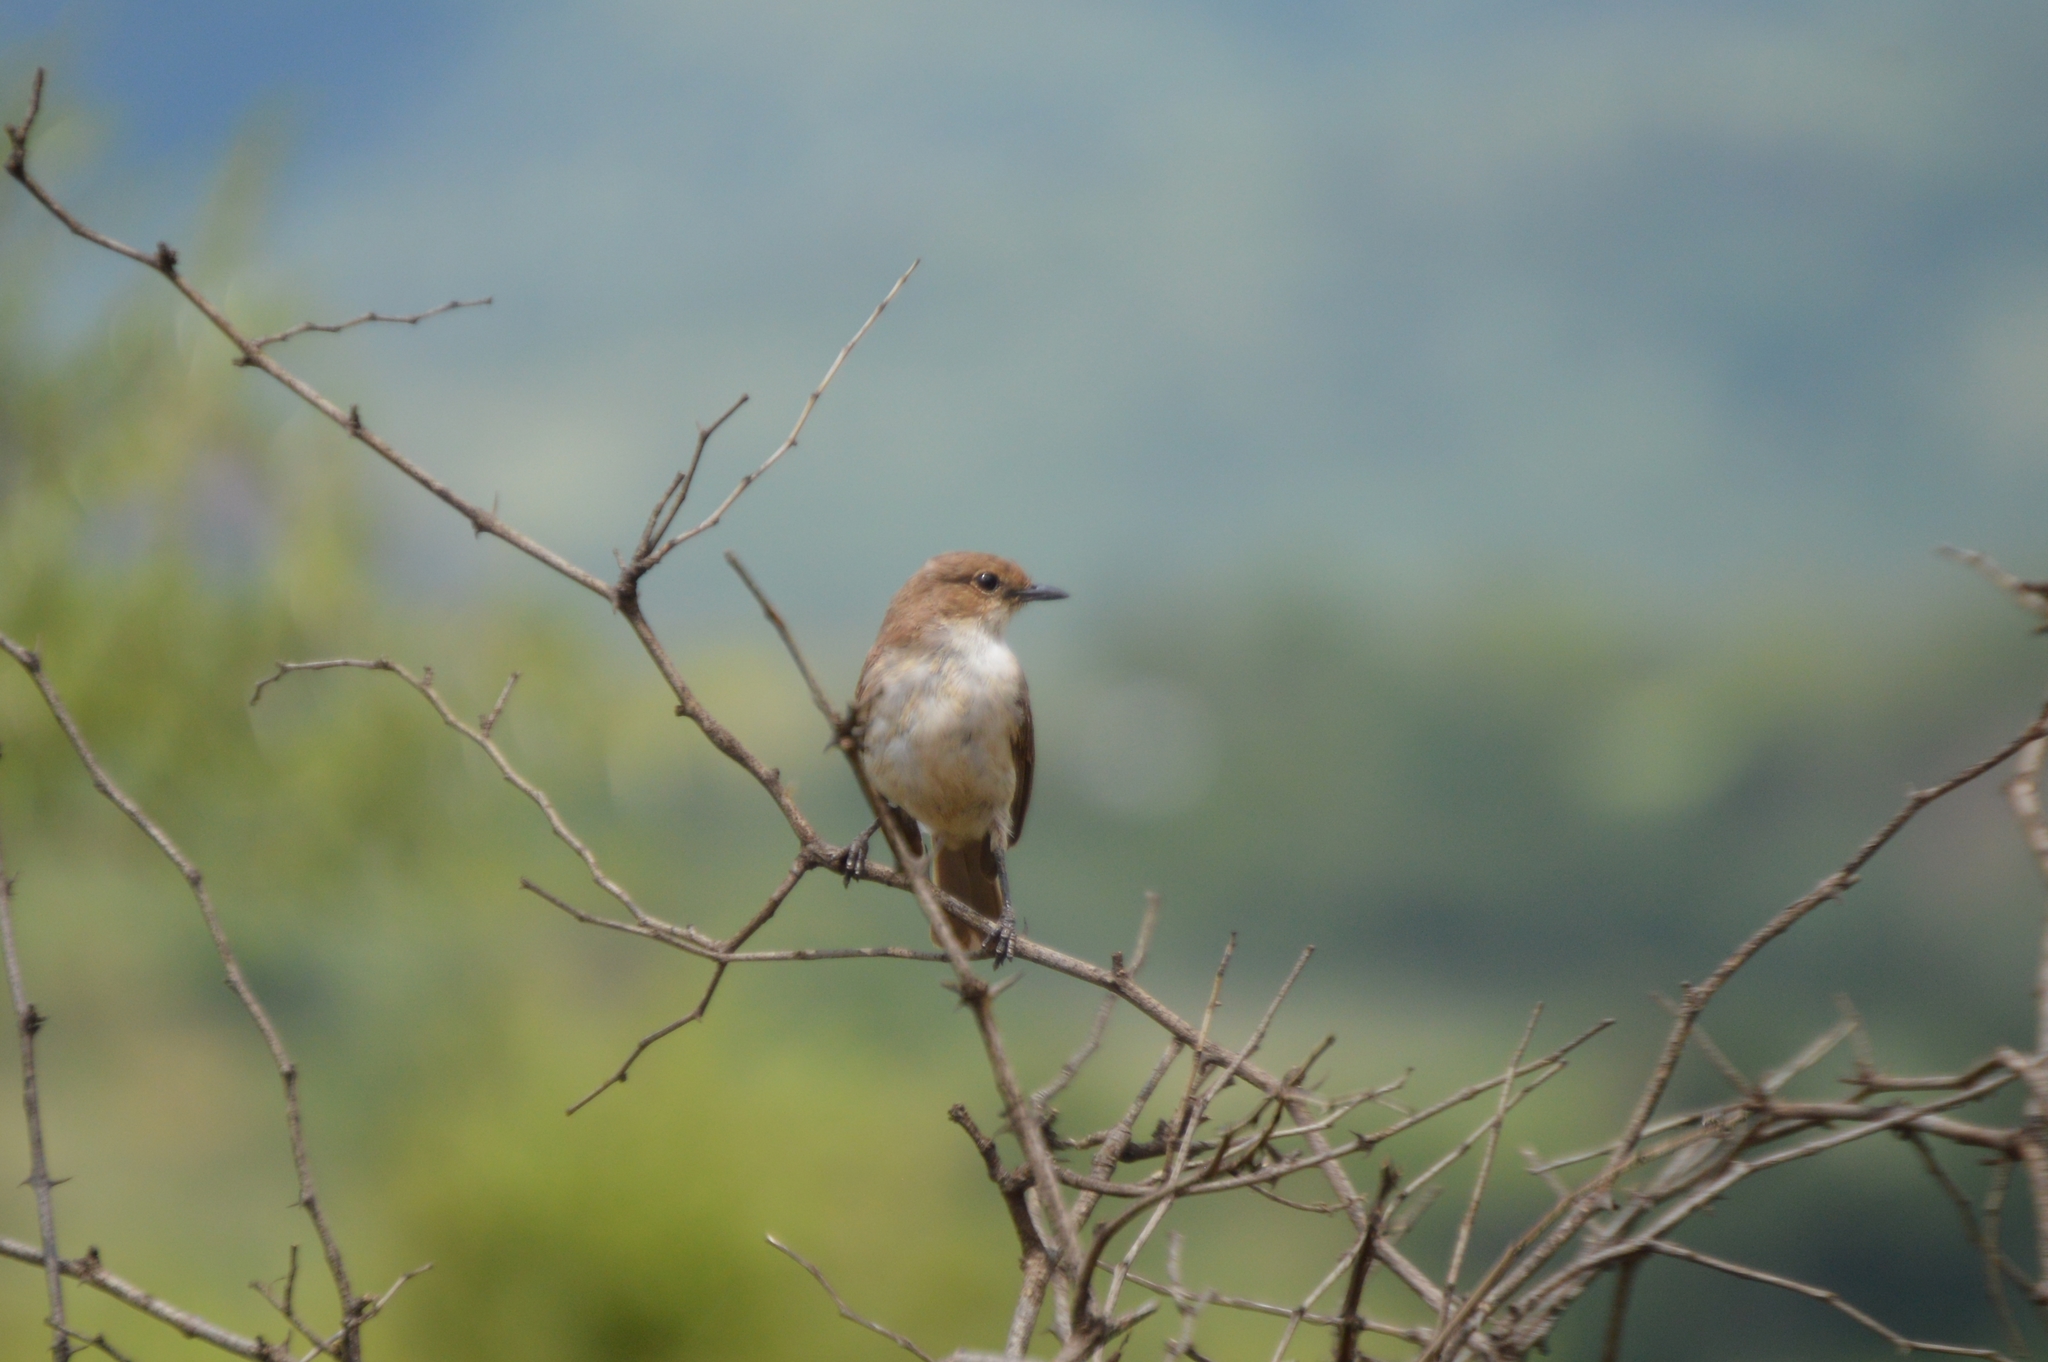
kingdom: Animalia
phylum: Chordata
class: Aves
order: Passeriformes
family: Muscicapidae
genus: Bradornis
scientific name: Bradornis mariquensis
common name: Marico flycatcher
